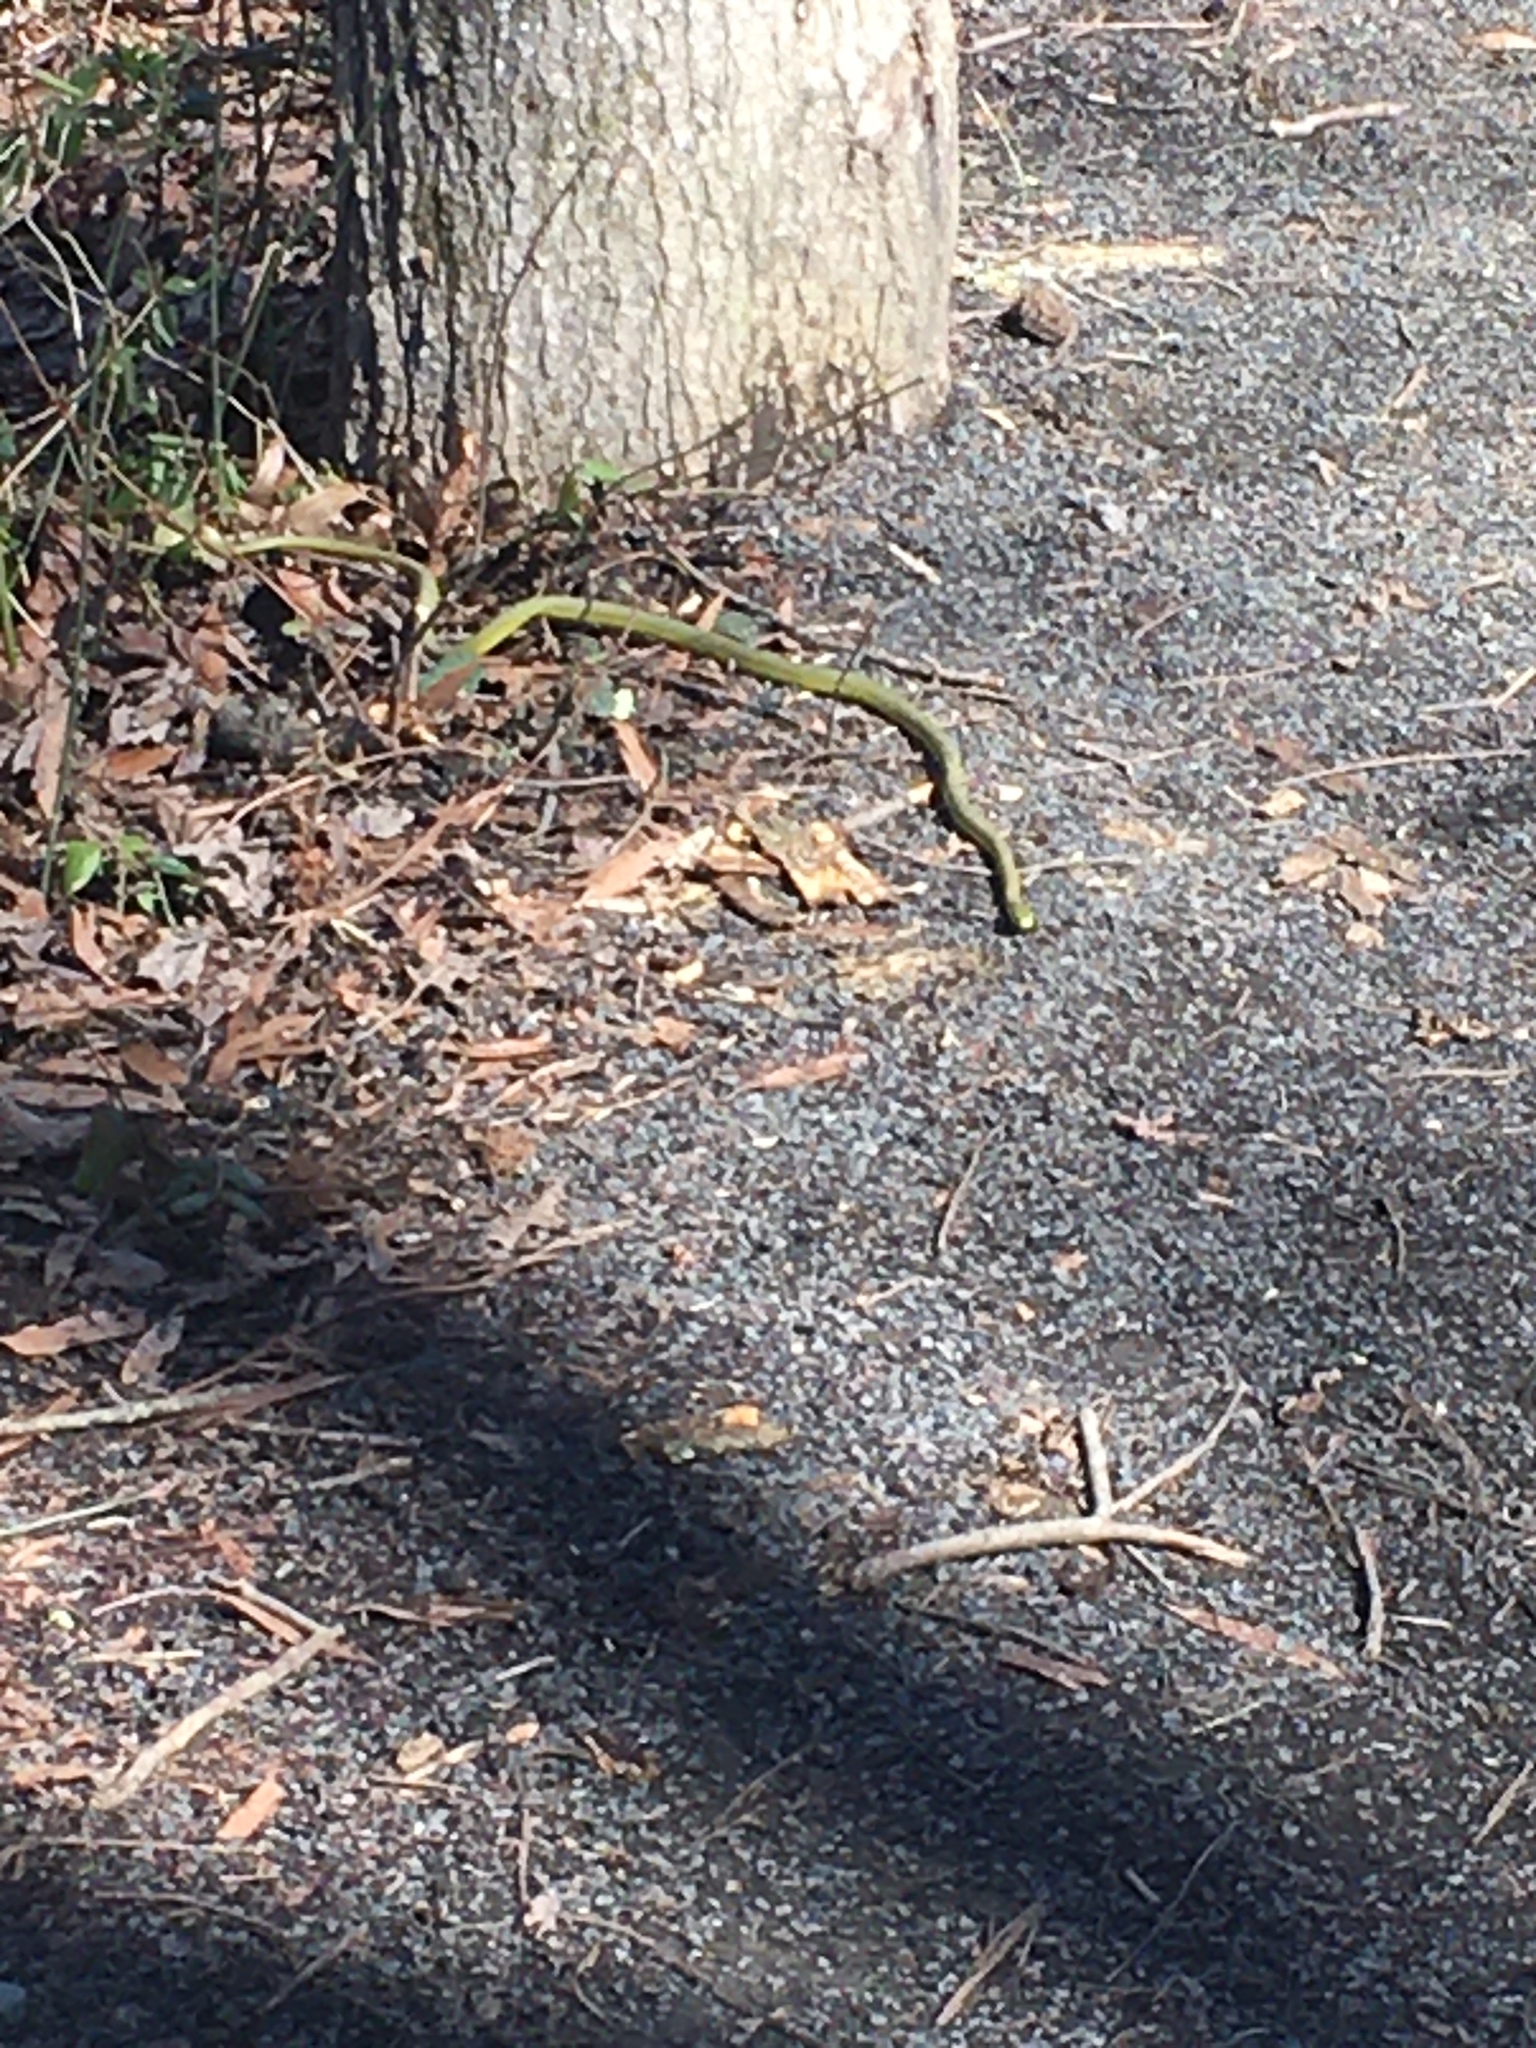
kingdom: Animalia
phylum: Chordata
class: Squamata
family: Colubridae
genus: Opheodrys
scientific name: Opheodrys aestivus
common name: Rough greensnake
